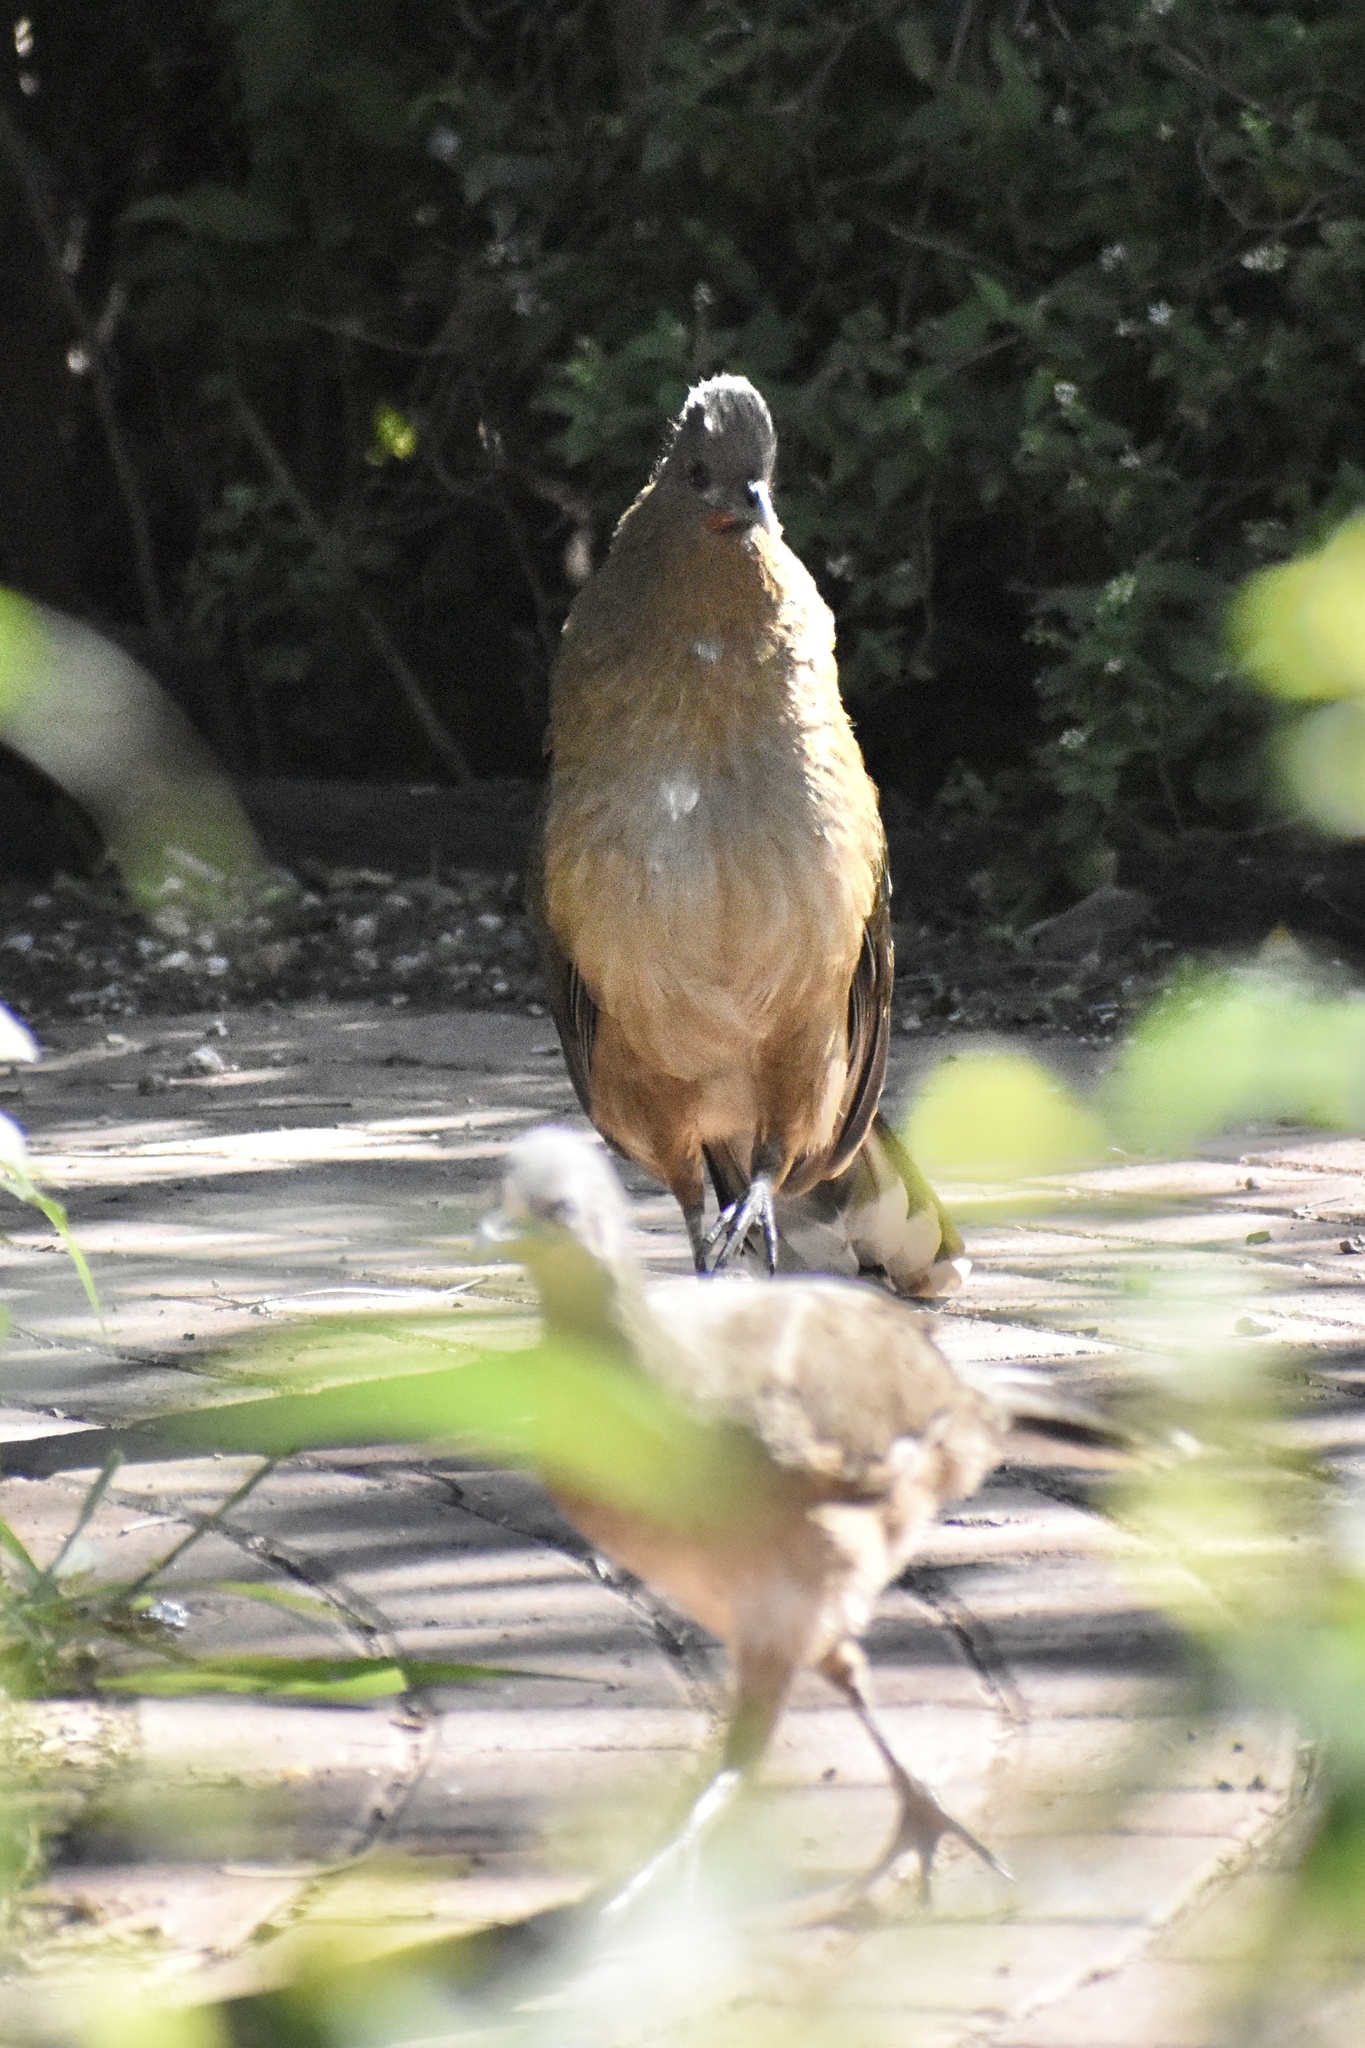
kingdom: Animalia
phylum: Chordata
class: Aves
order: Galliformes
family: Cracidae
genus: Ortalis
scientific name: Ortalis vetula
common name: Plain chachalaca
